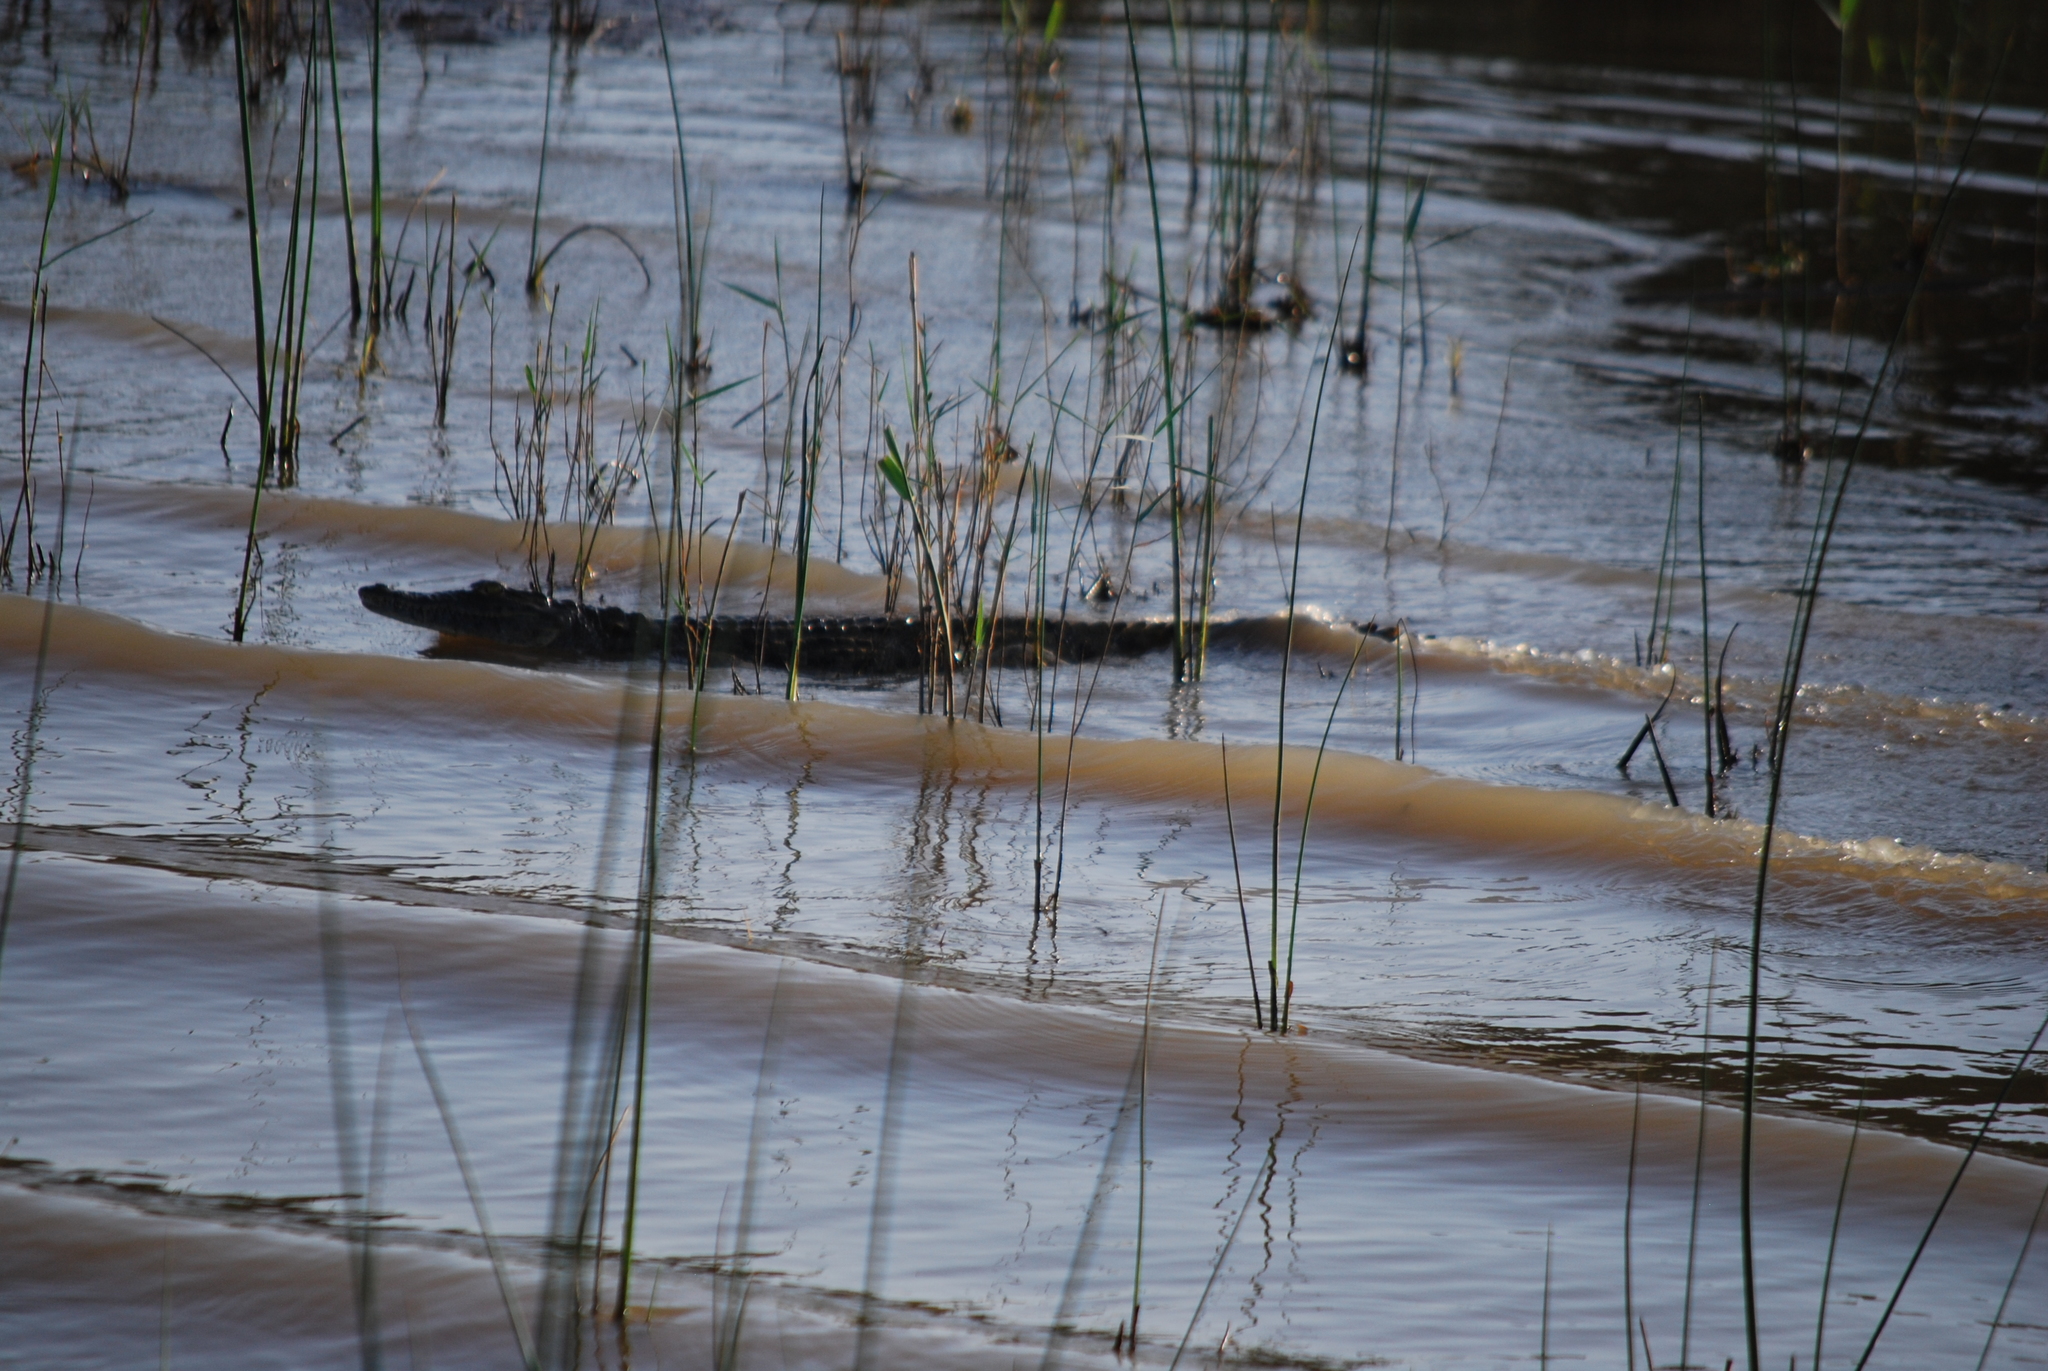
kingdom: Animalia
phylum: Chordata
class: Crocodylia
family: Crocodylidae
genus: Crocodylus
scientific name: Crocodylus niloticus
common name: Nile crocodile
